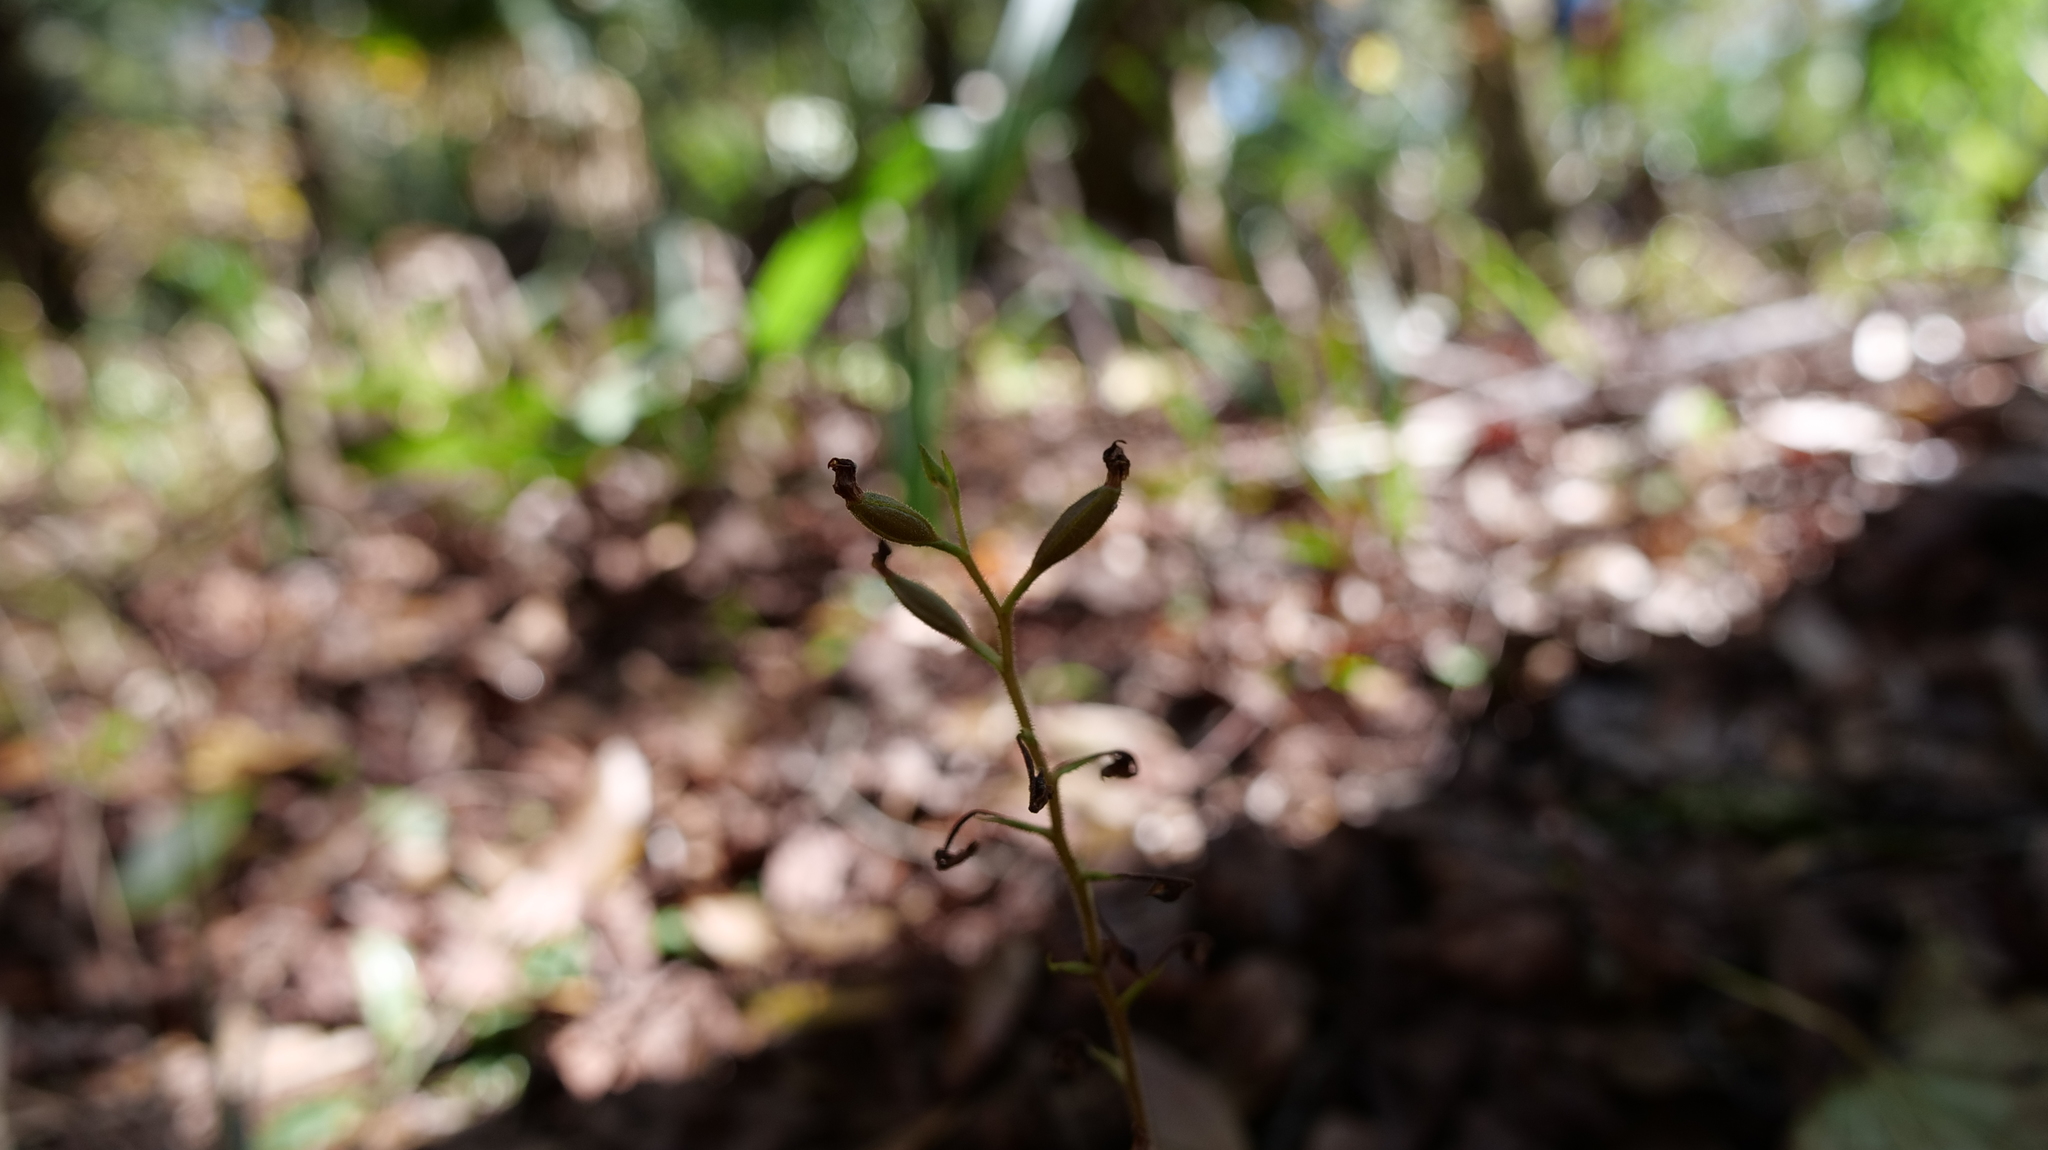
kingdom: Plantae
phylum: Tracheophyta
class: Liliopsida
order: Asparagales
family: Orchidaceae
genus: Ponthieva
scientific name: Ponthieva racemosa
